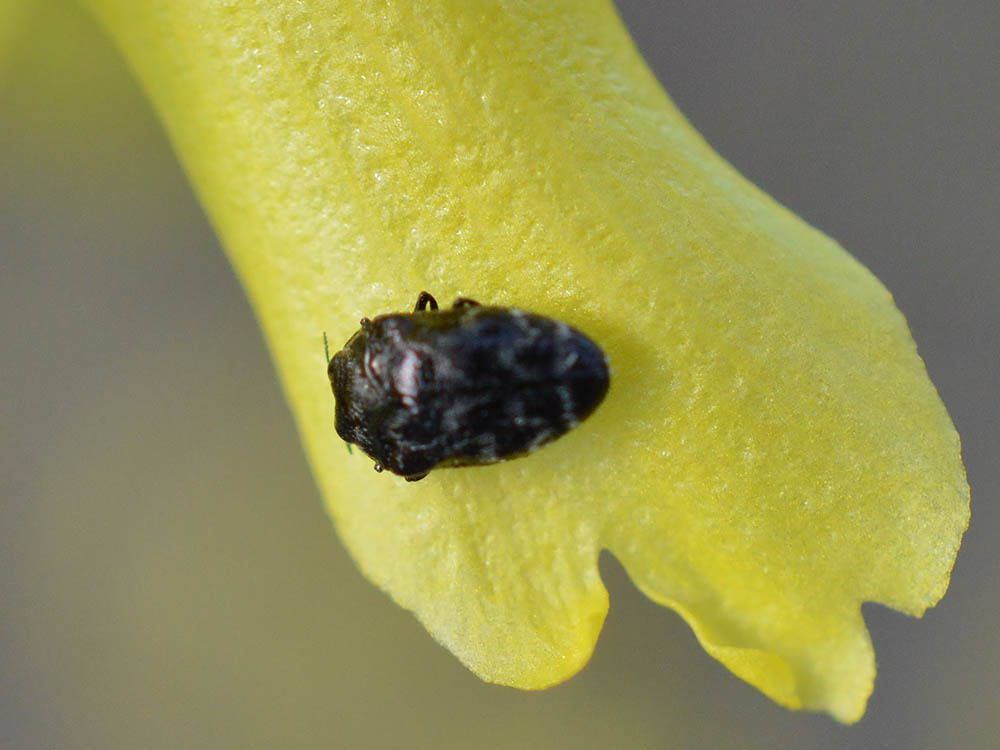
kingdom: Animalia
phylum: Arthropoda
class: Insecta
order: Coleoptera
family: Buprestidae
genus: Trachys
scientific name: Trachys minutus
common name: Metallic wood-boring beetle
